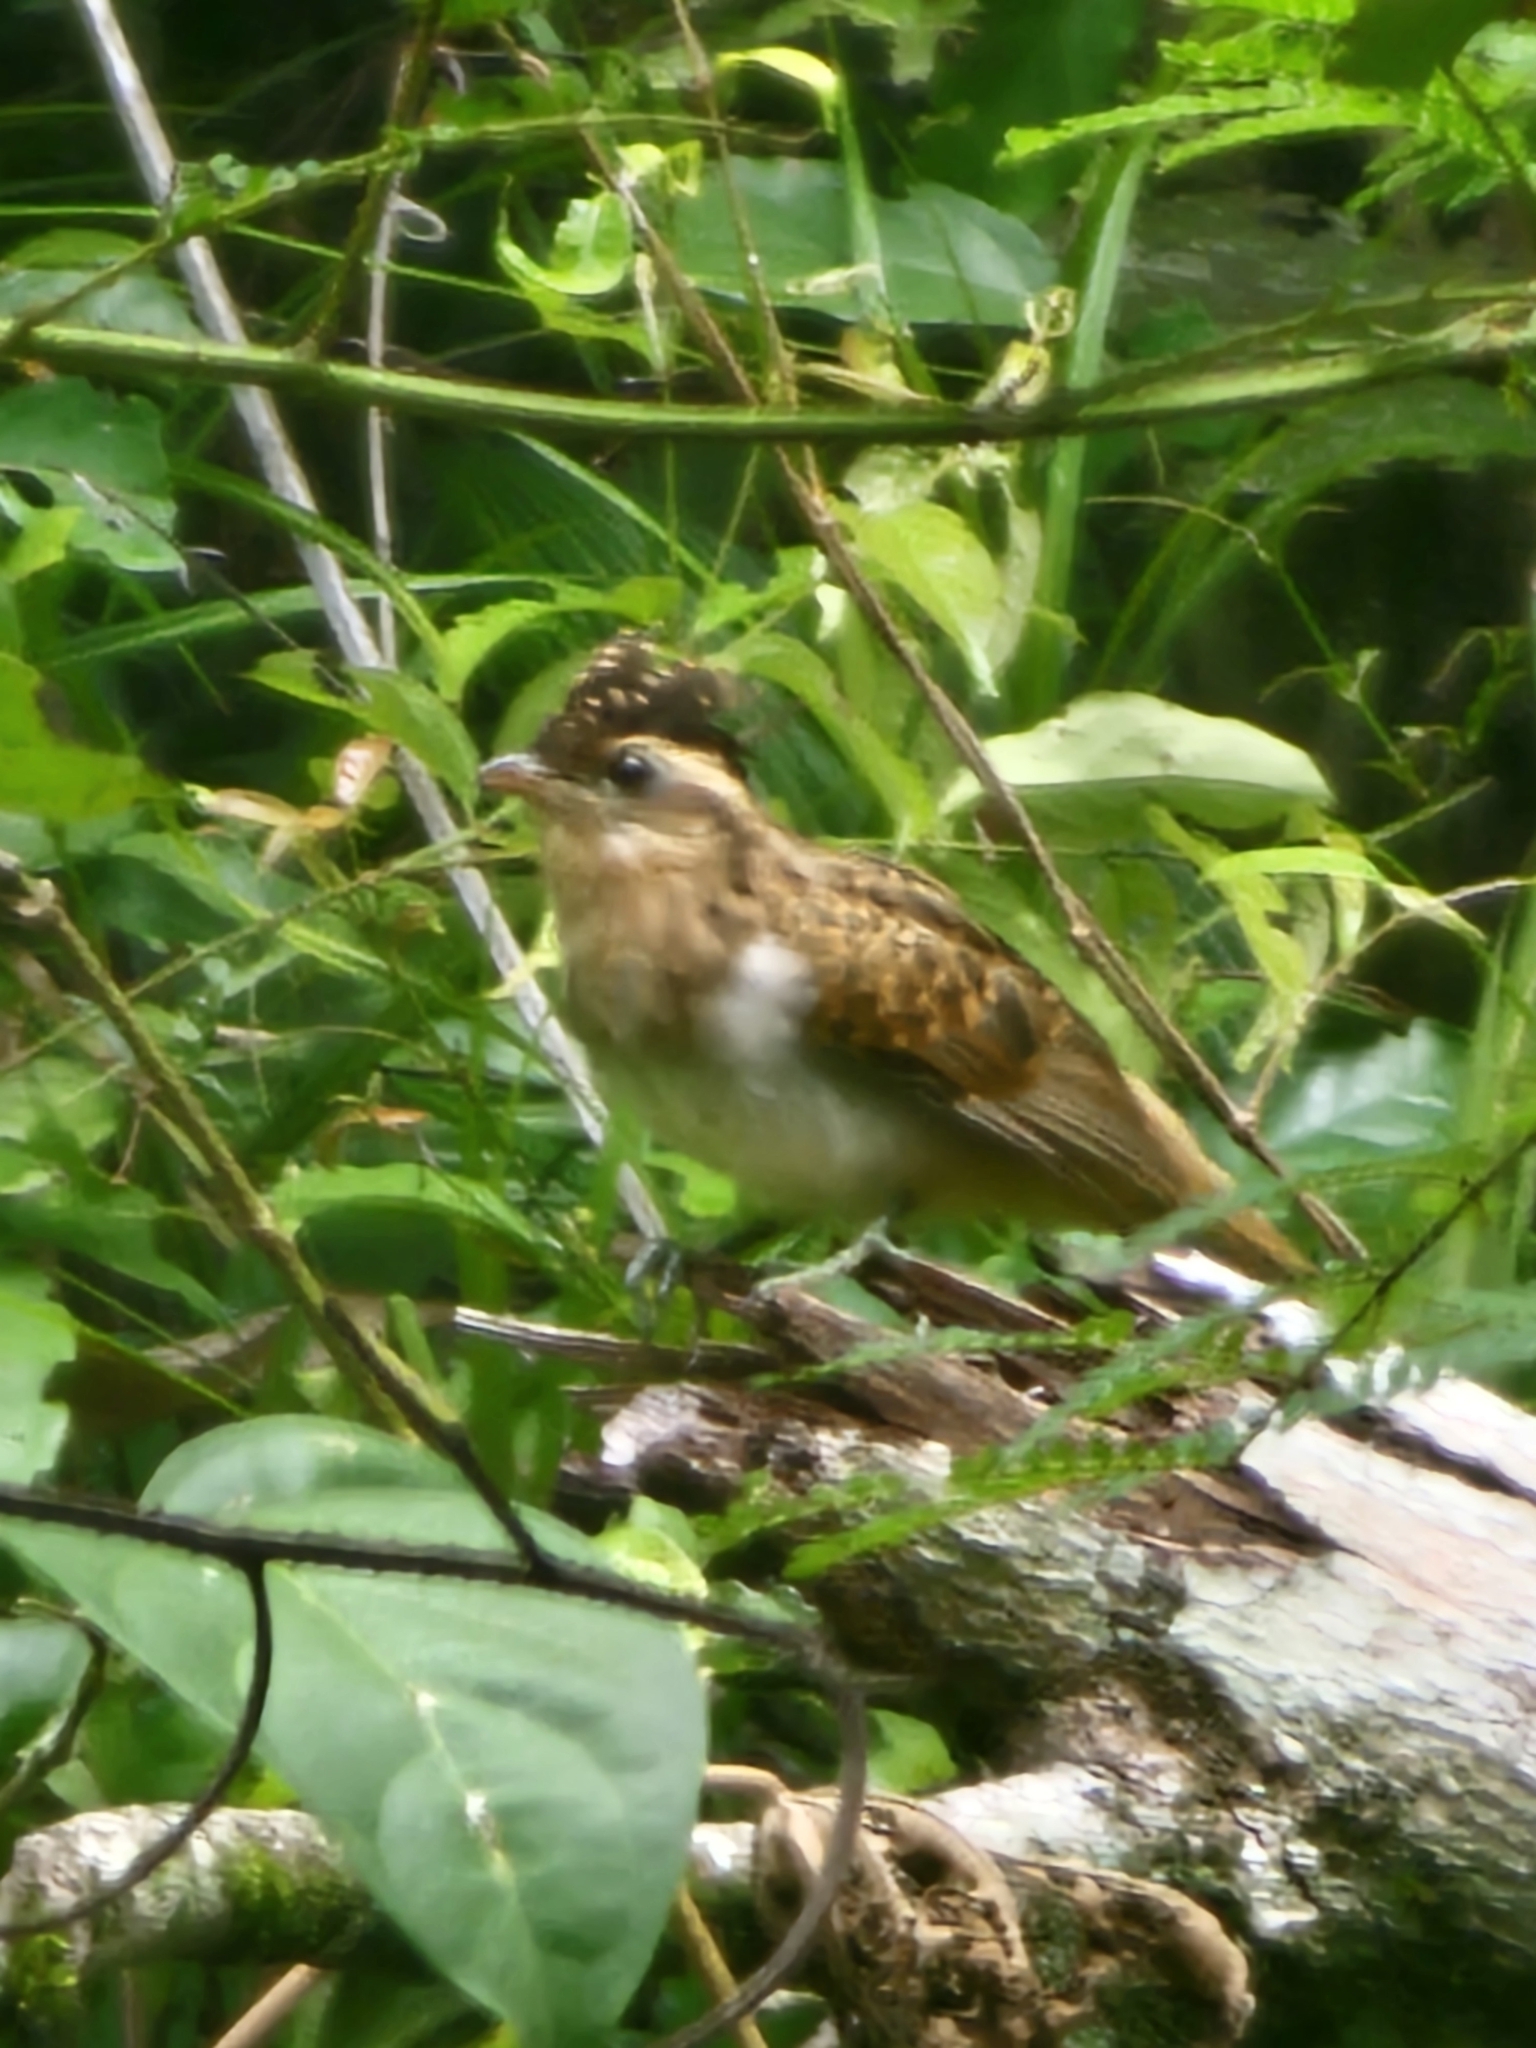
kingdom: Animalia
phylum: Chordata
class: Aves
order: Cuculiformes
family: Cuculidae
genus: Tapera
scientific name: Tapera naevia
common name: Striped cuckoo
